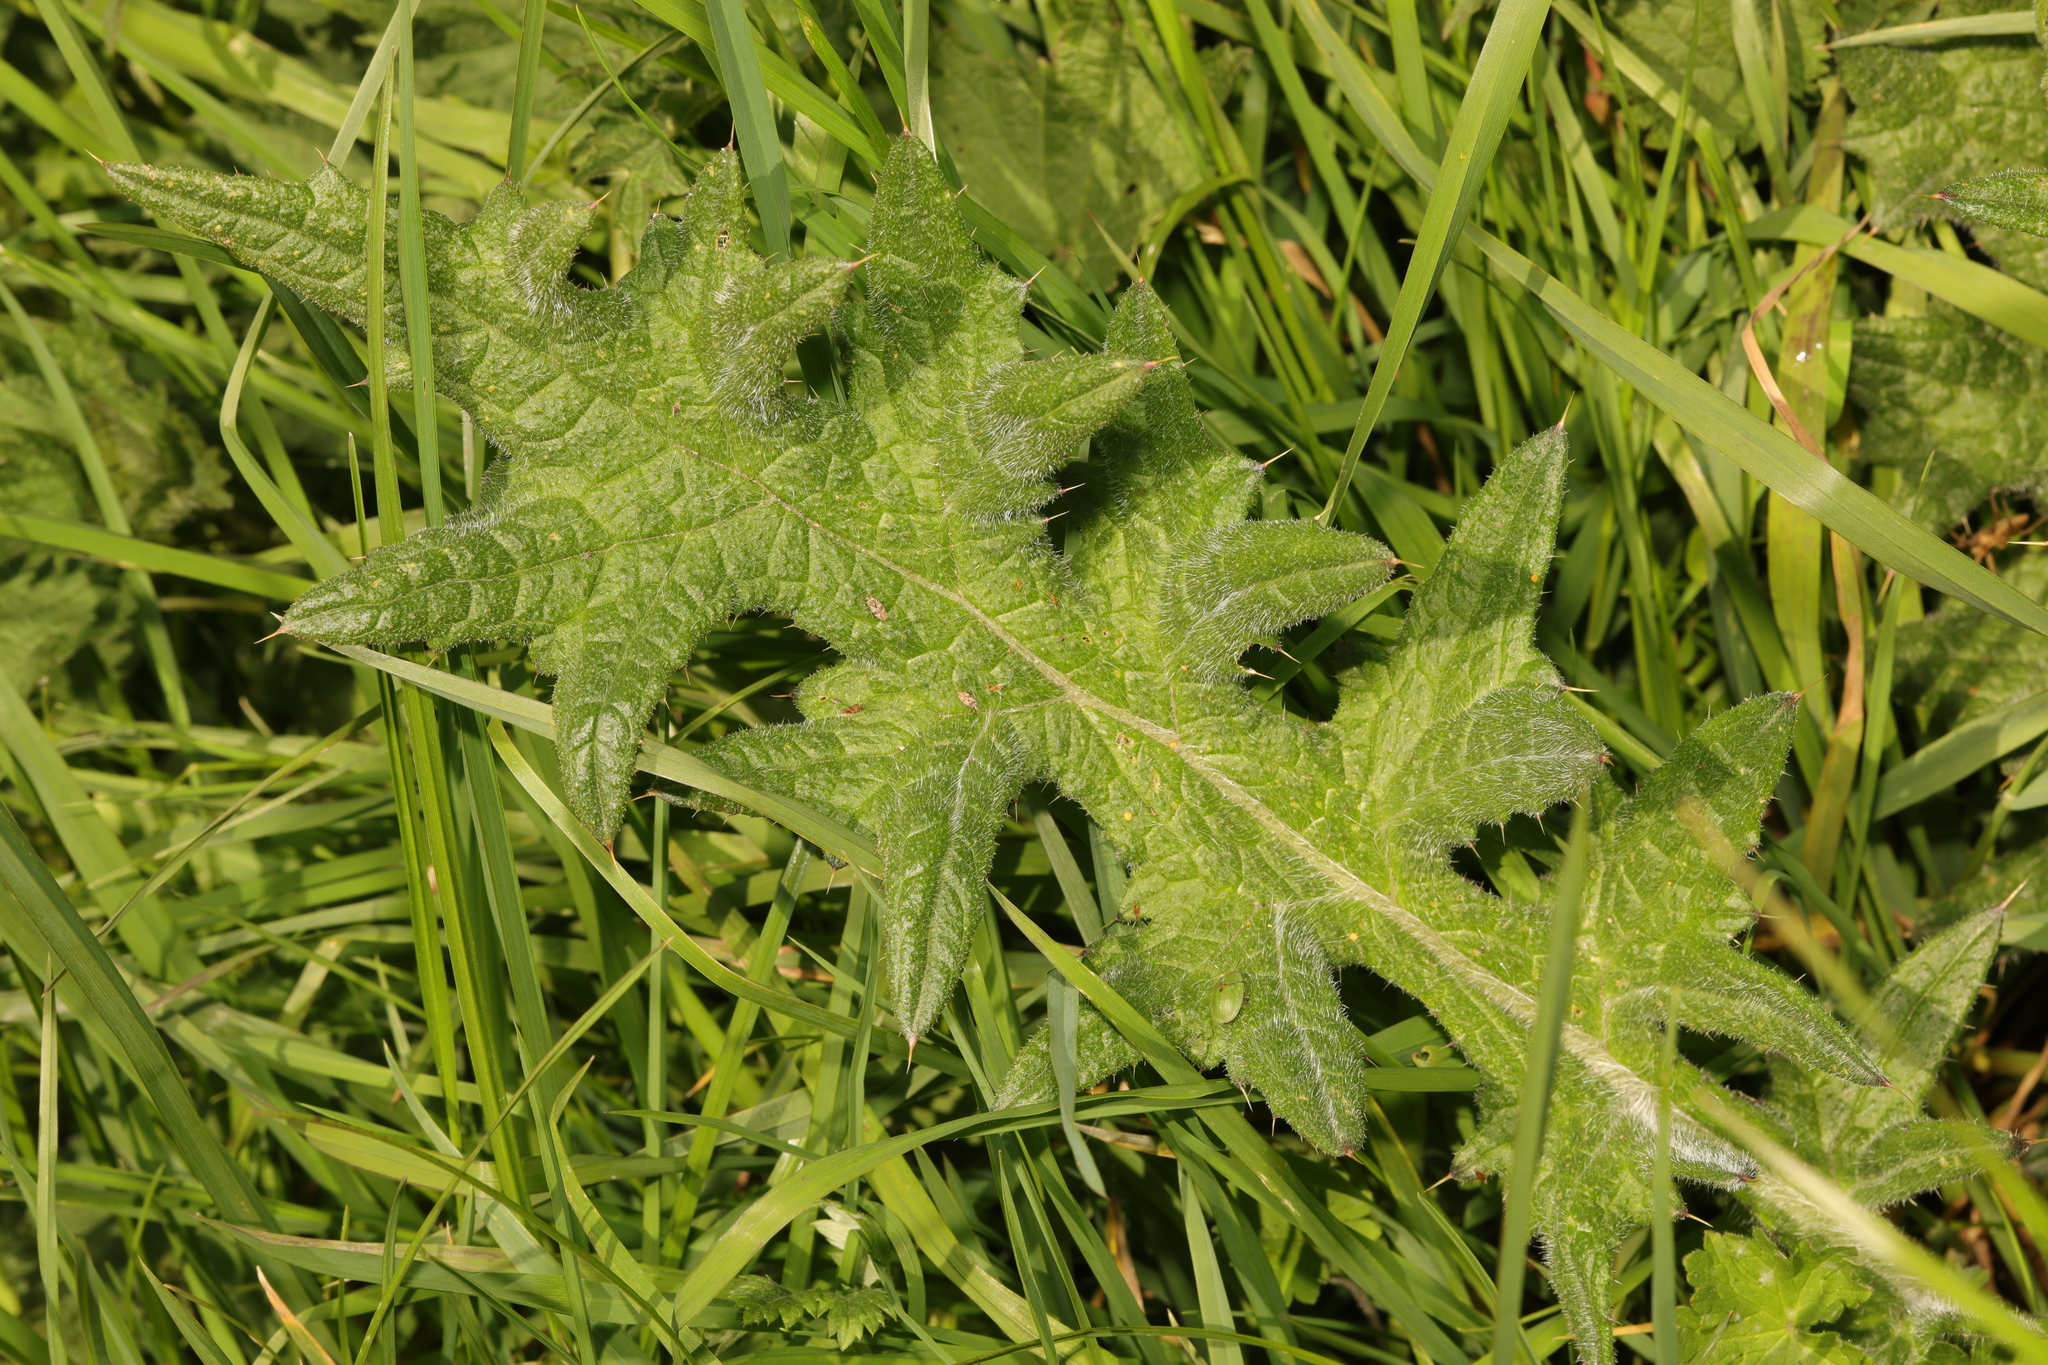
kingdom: Plantae
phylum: Tracheophyta
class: Magnoliopsida
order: Asterales
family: Asteraceae
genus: Cirsium
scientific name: Cirsium vulgare
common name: Bull thistle
